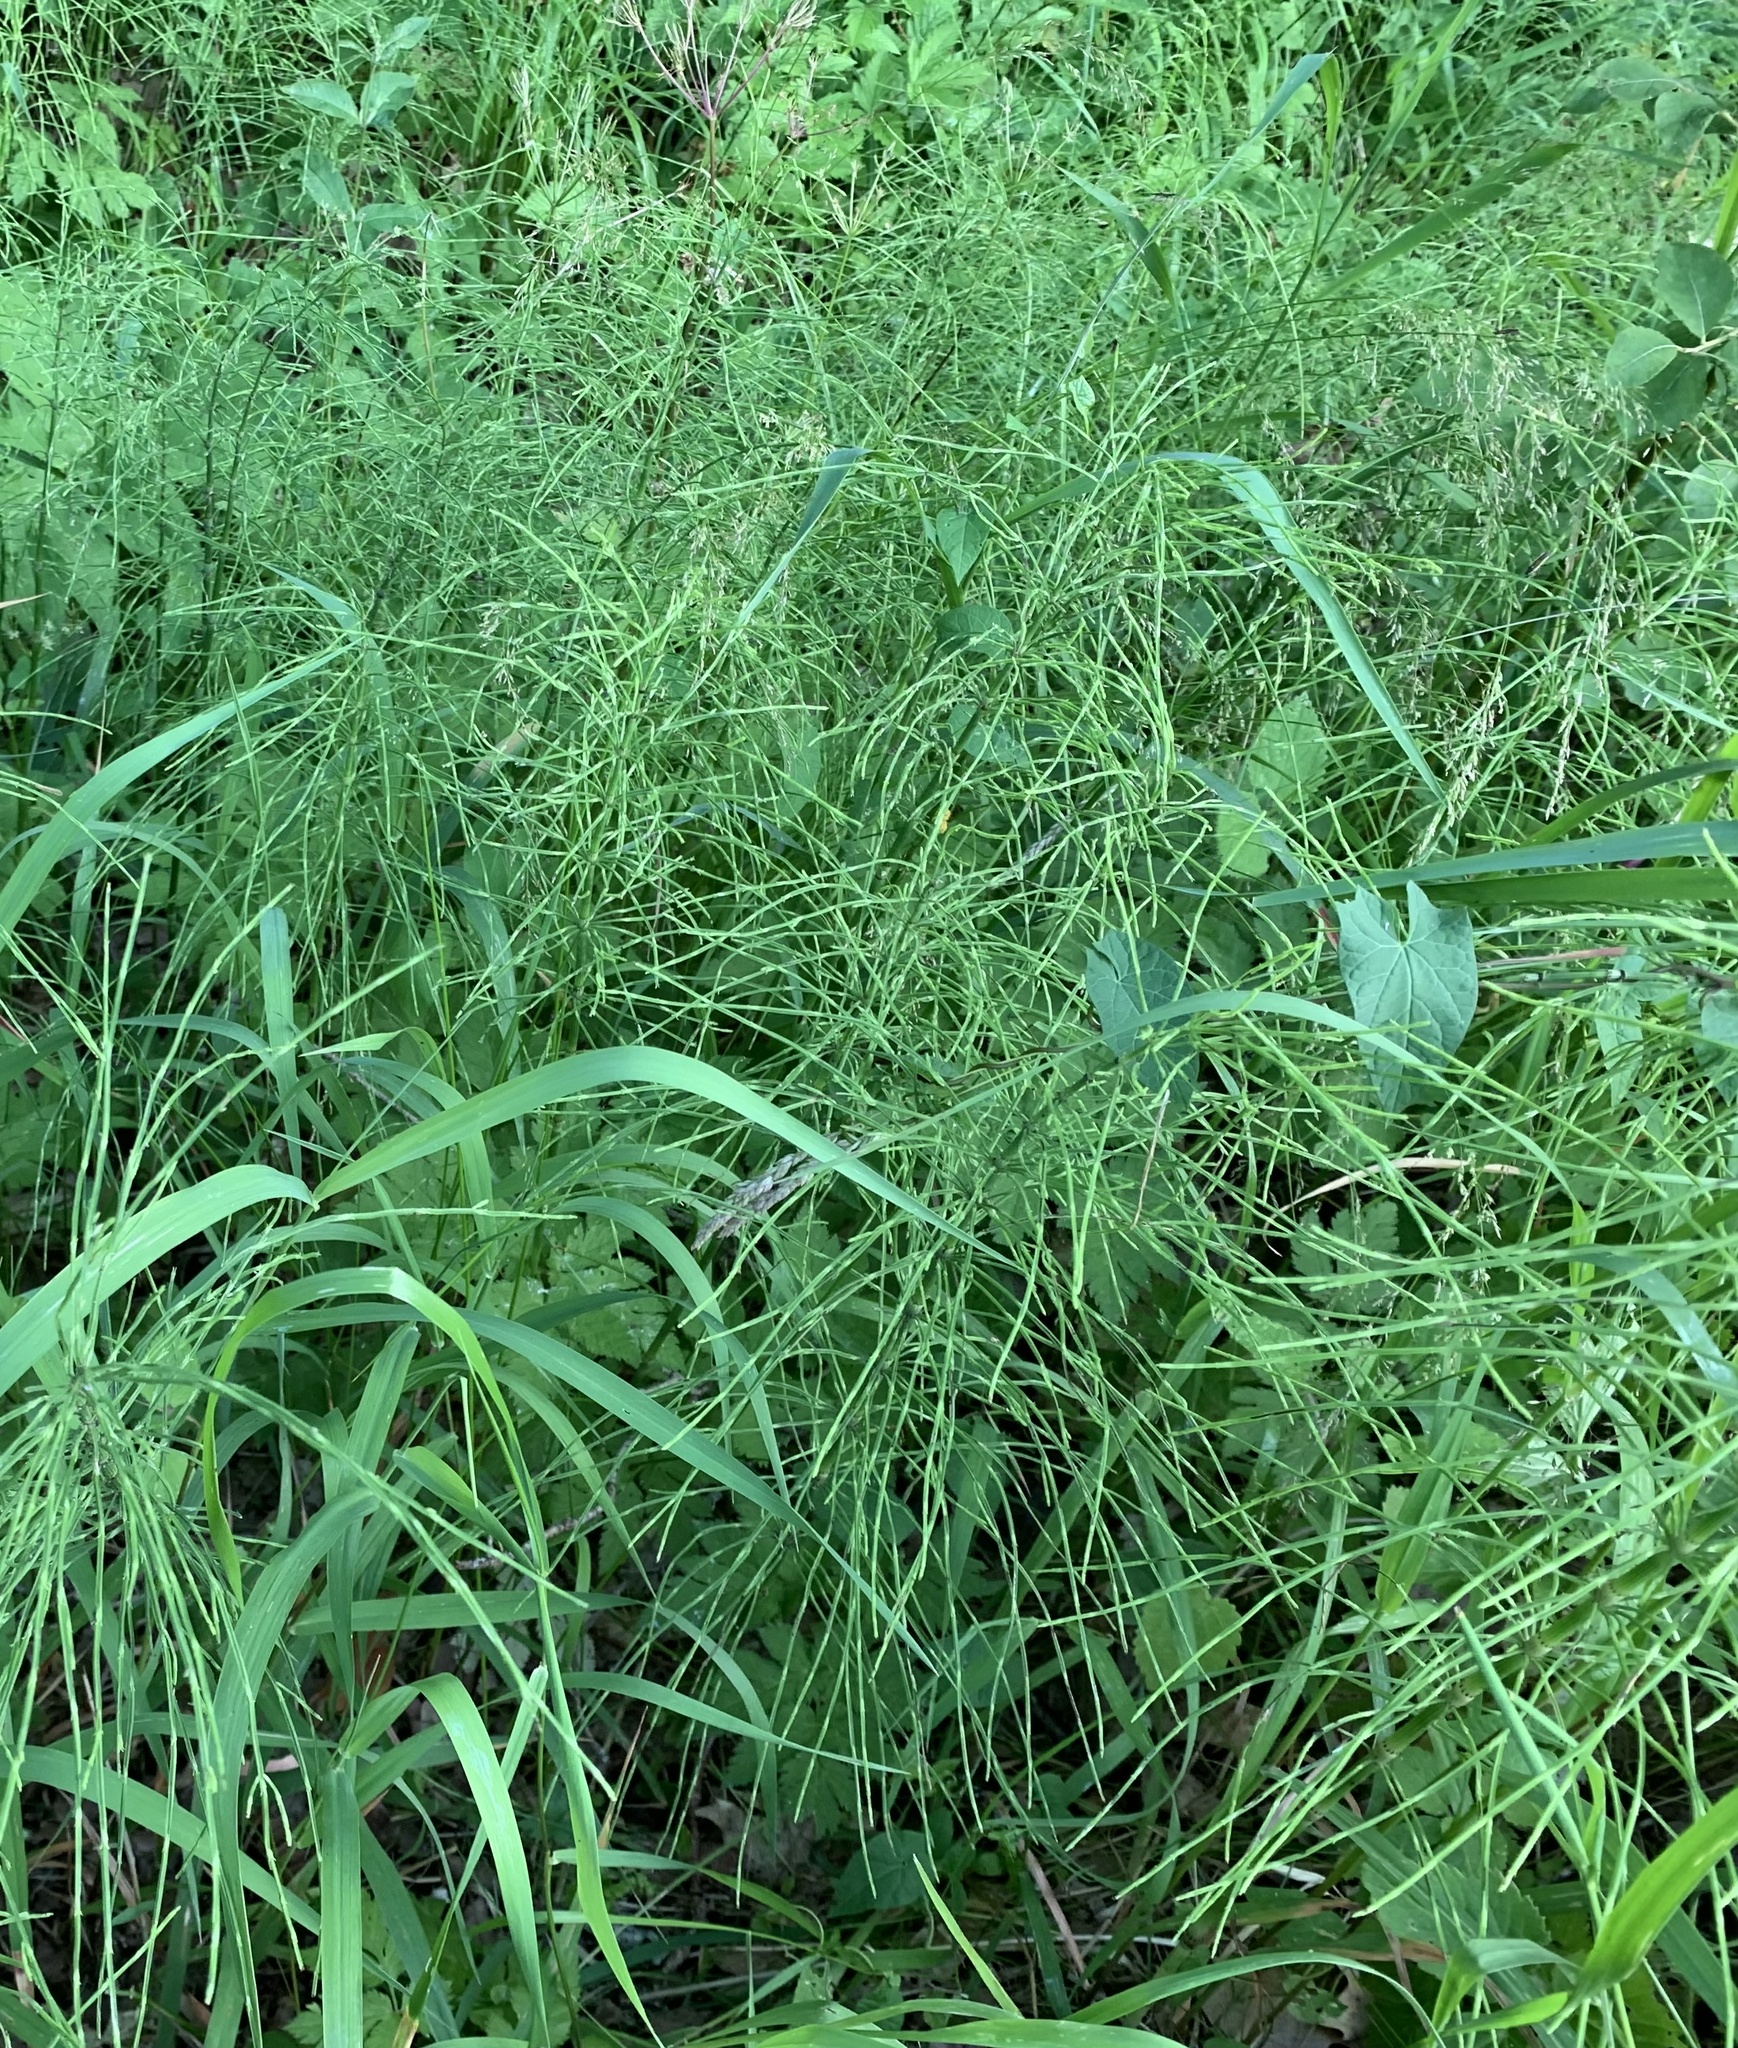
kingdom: Plantae
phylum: Tracheophyta
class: Polypodiopsida
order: Equisetales
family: Equisetaceae
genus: Equisetum
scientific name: Equisetum arvense
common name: Field horsetail
